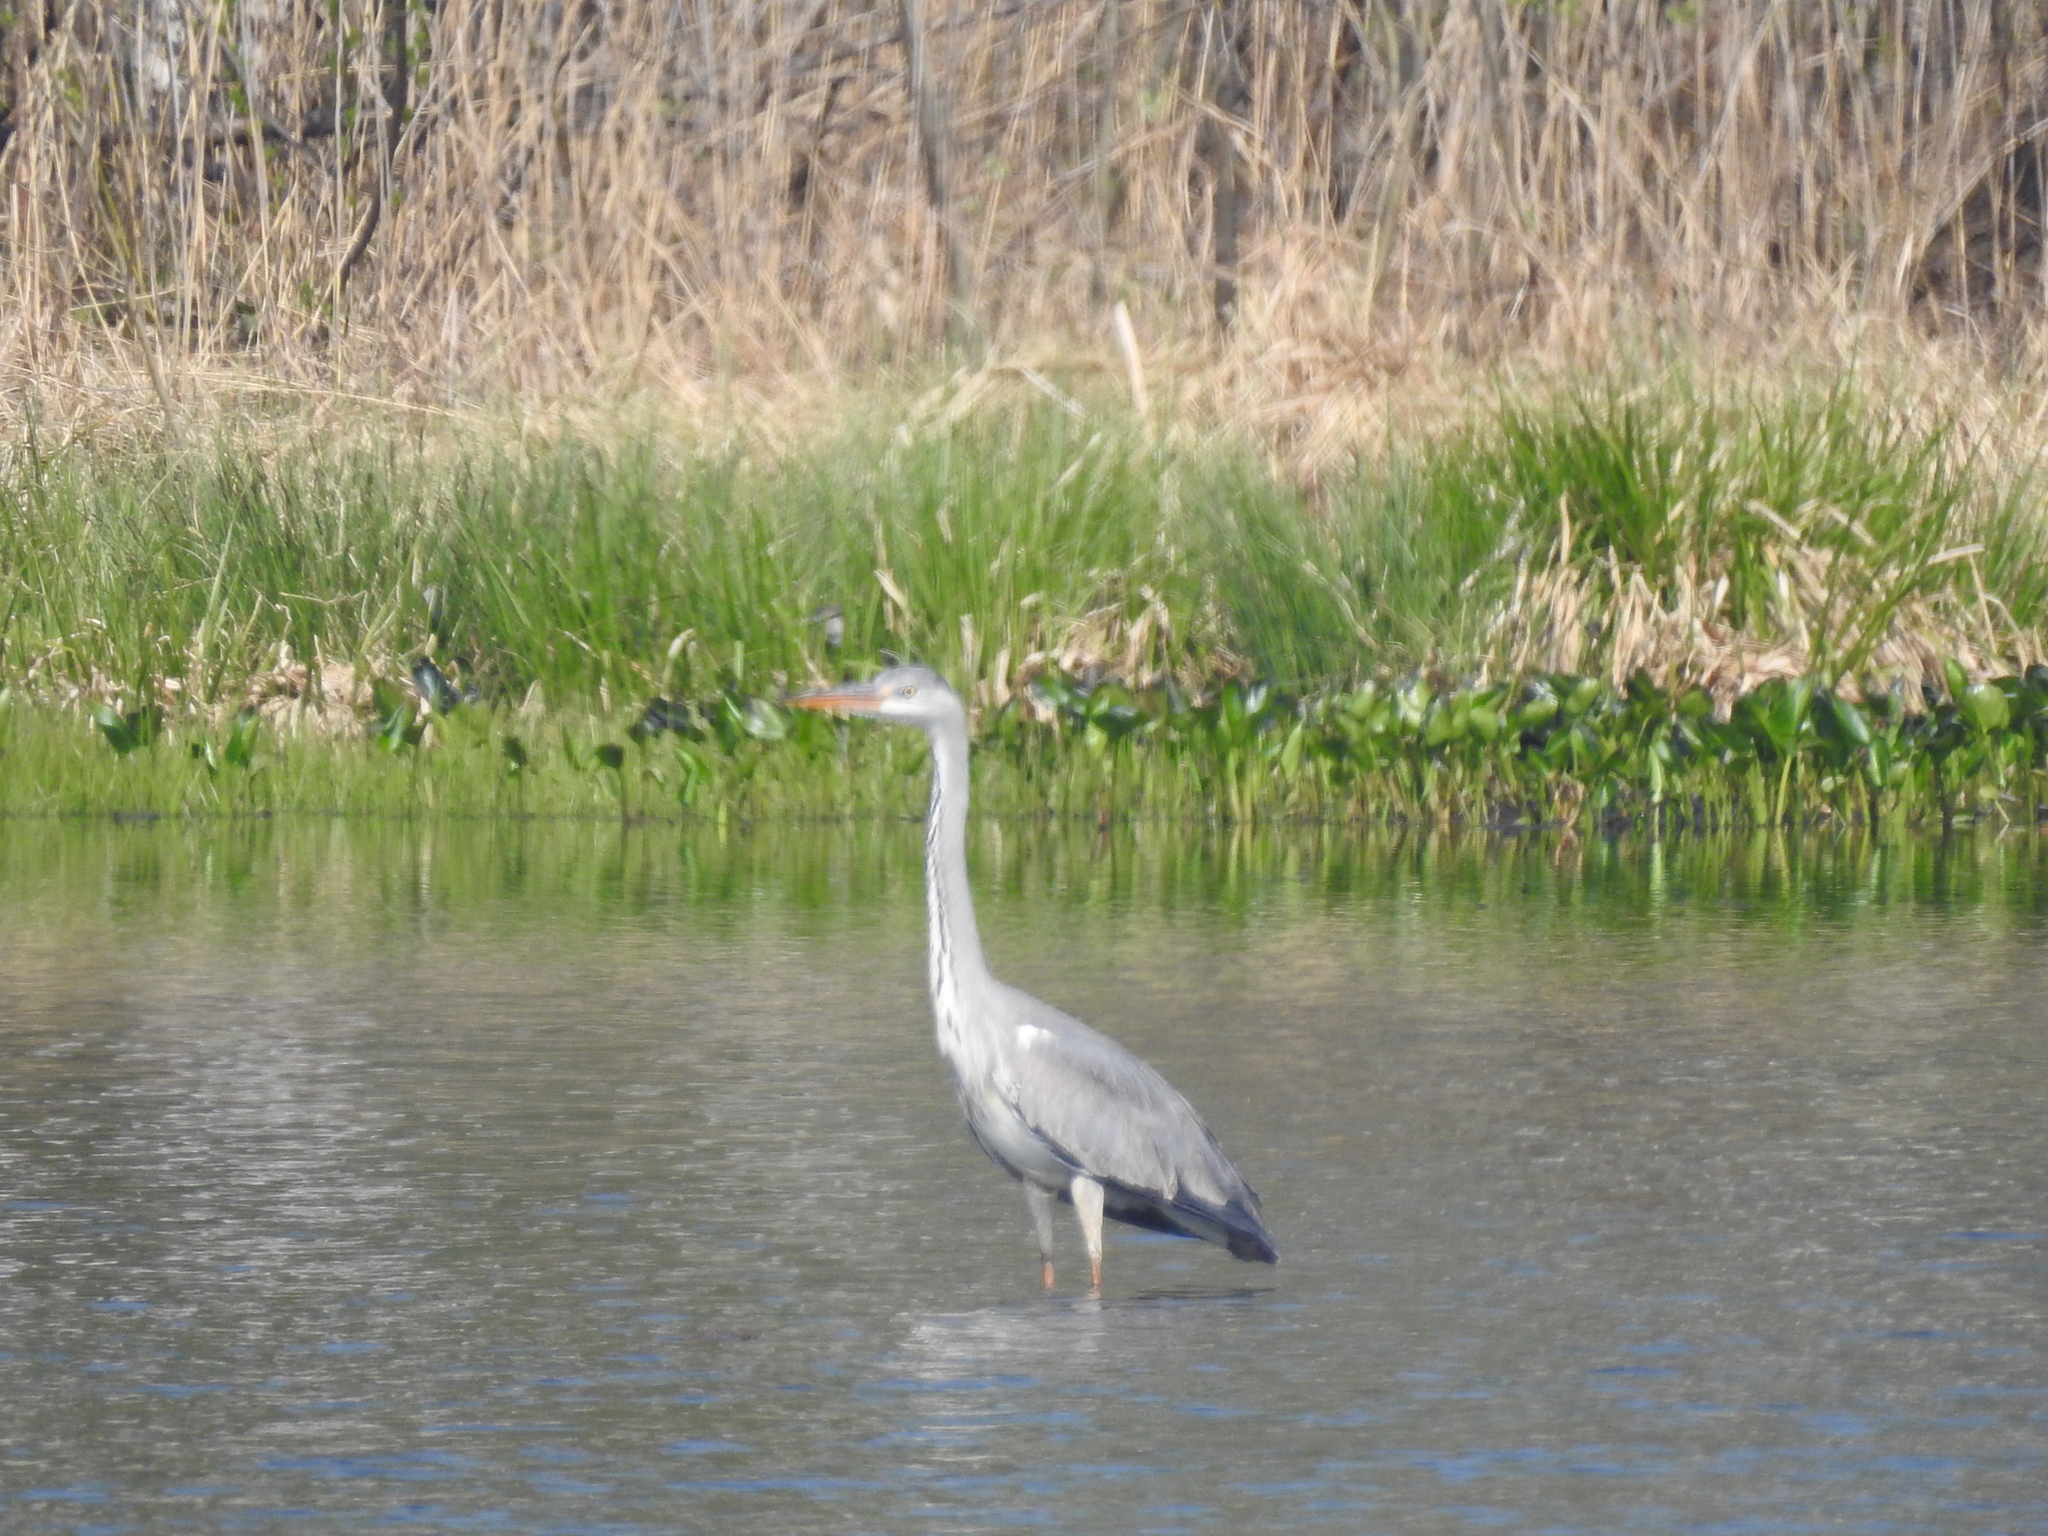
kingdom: Animalia
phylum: Chordata
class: Aves
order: Pelecaniformes
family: Ardeidae
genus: Ardea
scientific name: Ardea cinerea
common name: Grey heron
